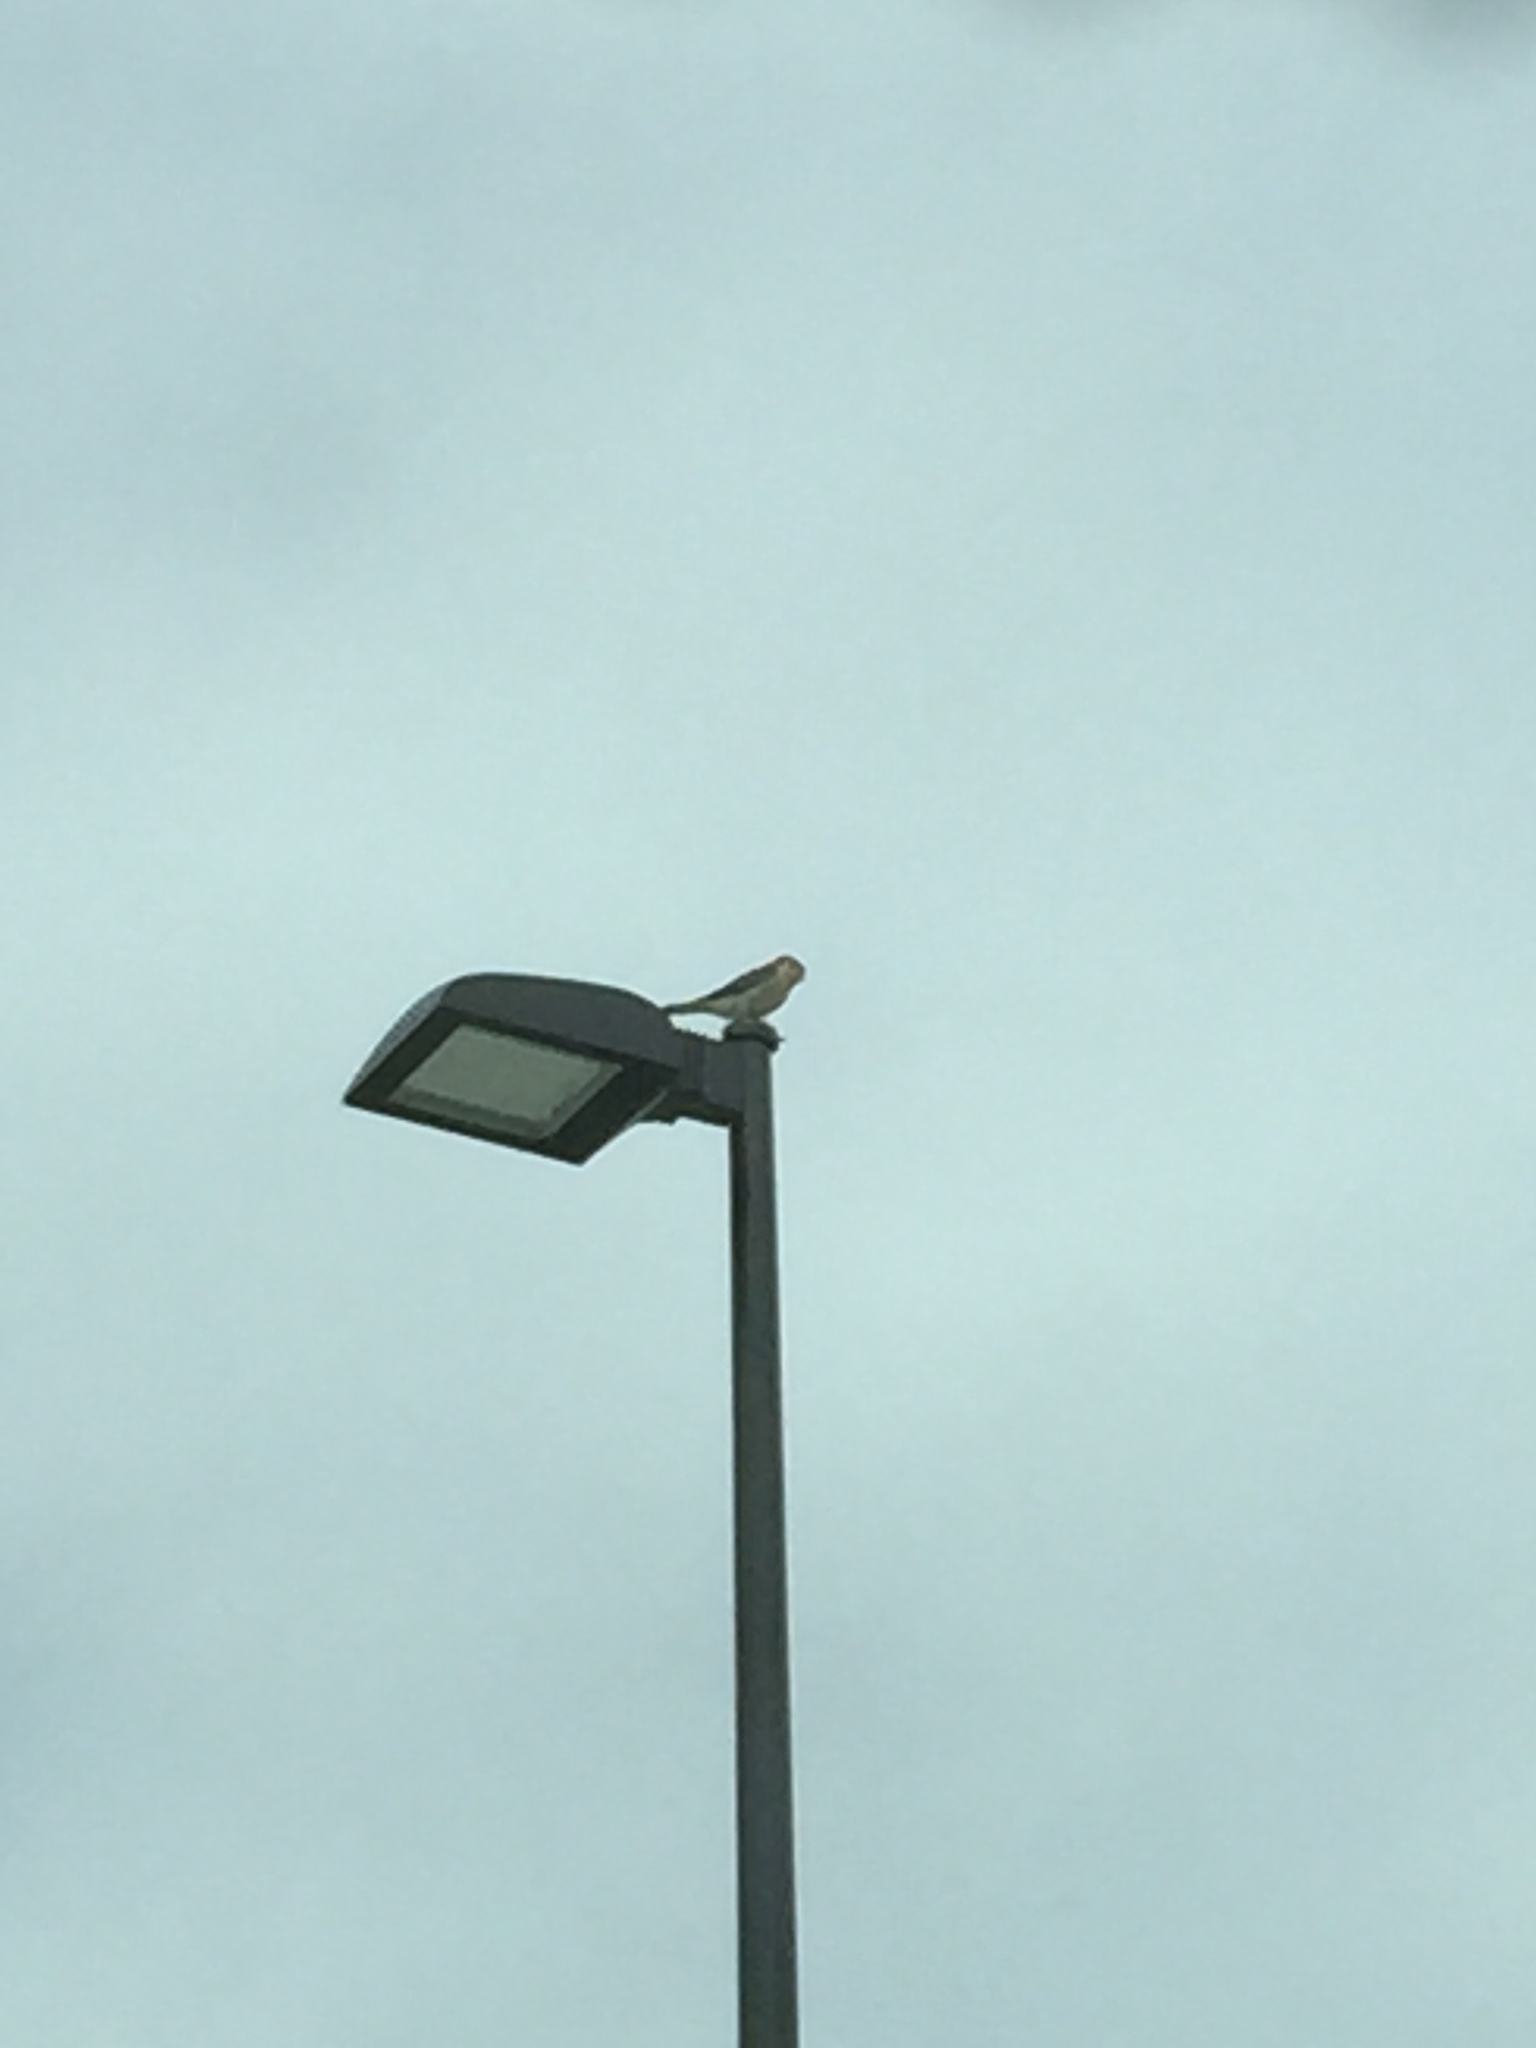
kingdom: Animalia
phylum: Chordata
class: Aves
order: Falconiformes
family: Falconidae
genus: Falco
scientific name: Falco sparverius
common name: American kestrel
